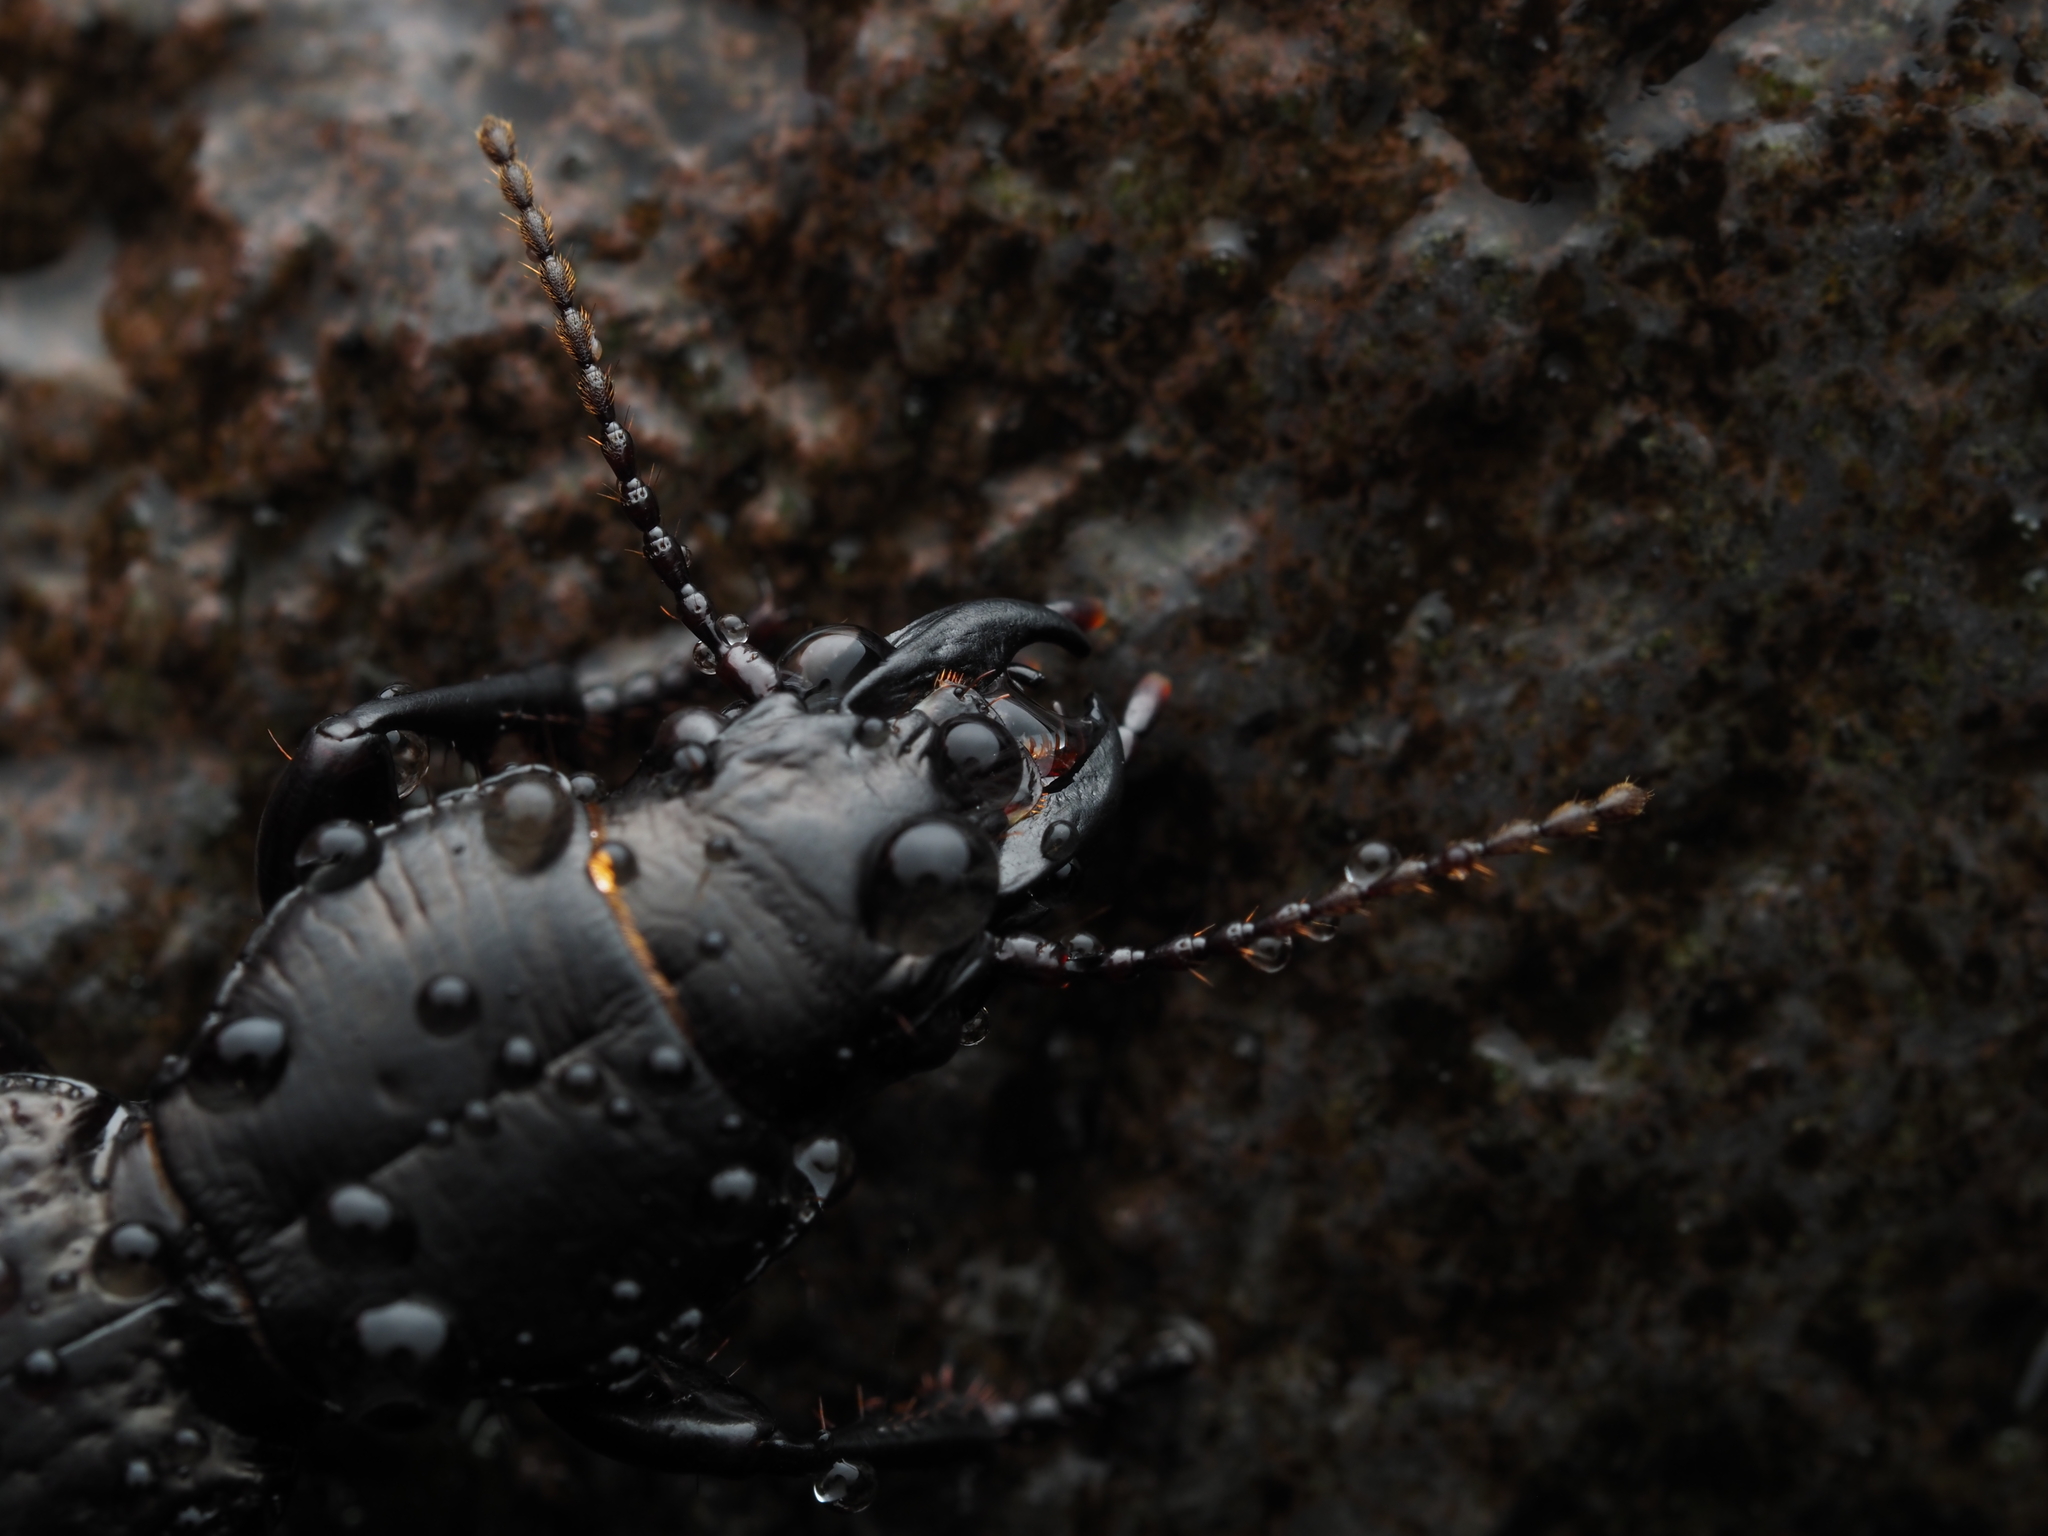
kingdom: Animalia
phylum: Arthropoda
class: Insecta
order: Coleoptera
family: Carabidae
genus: Mecodema
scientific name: Mecodema crenaticolle
